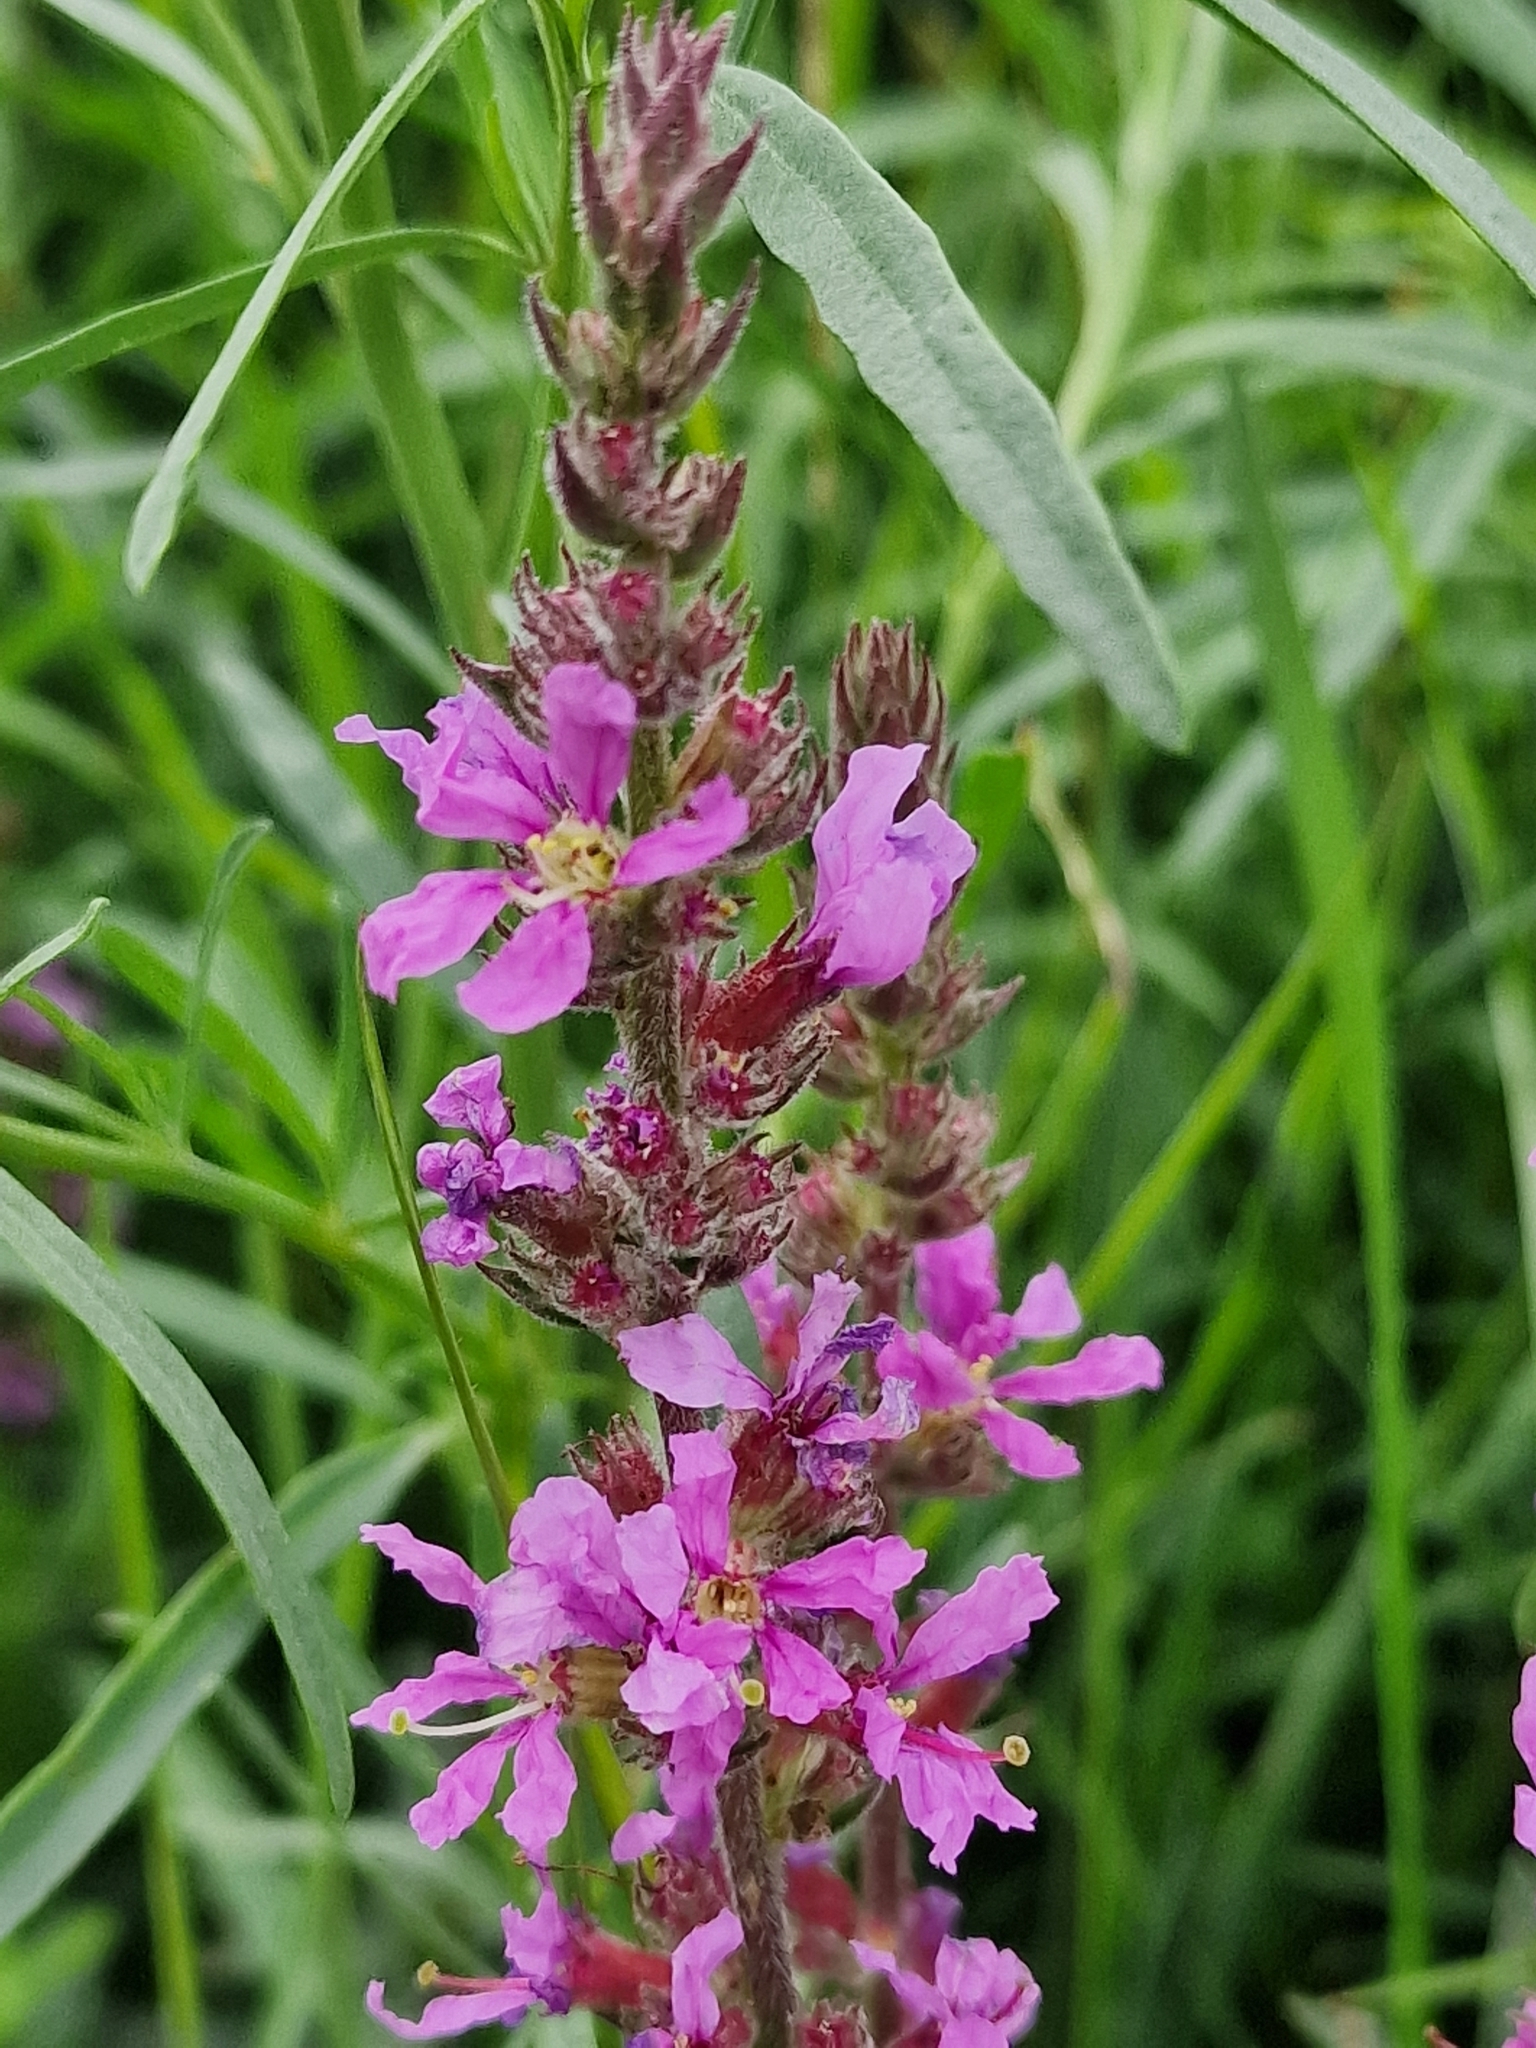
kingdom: Plantae
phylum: Tracheophyta
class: Magnoliopsida
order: Myrtales
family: Lythraceae
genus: Lythrum
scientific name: Lythrum salicaria
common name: Purple loosestrife
